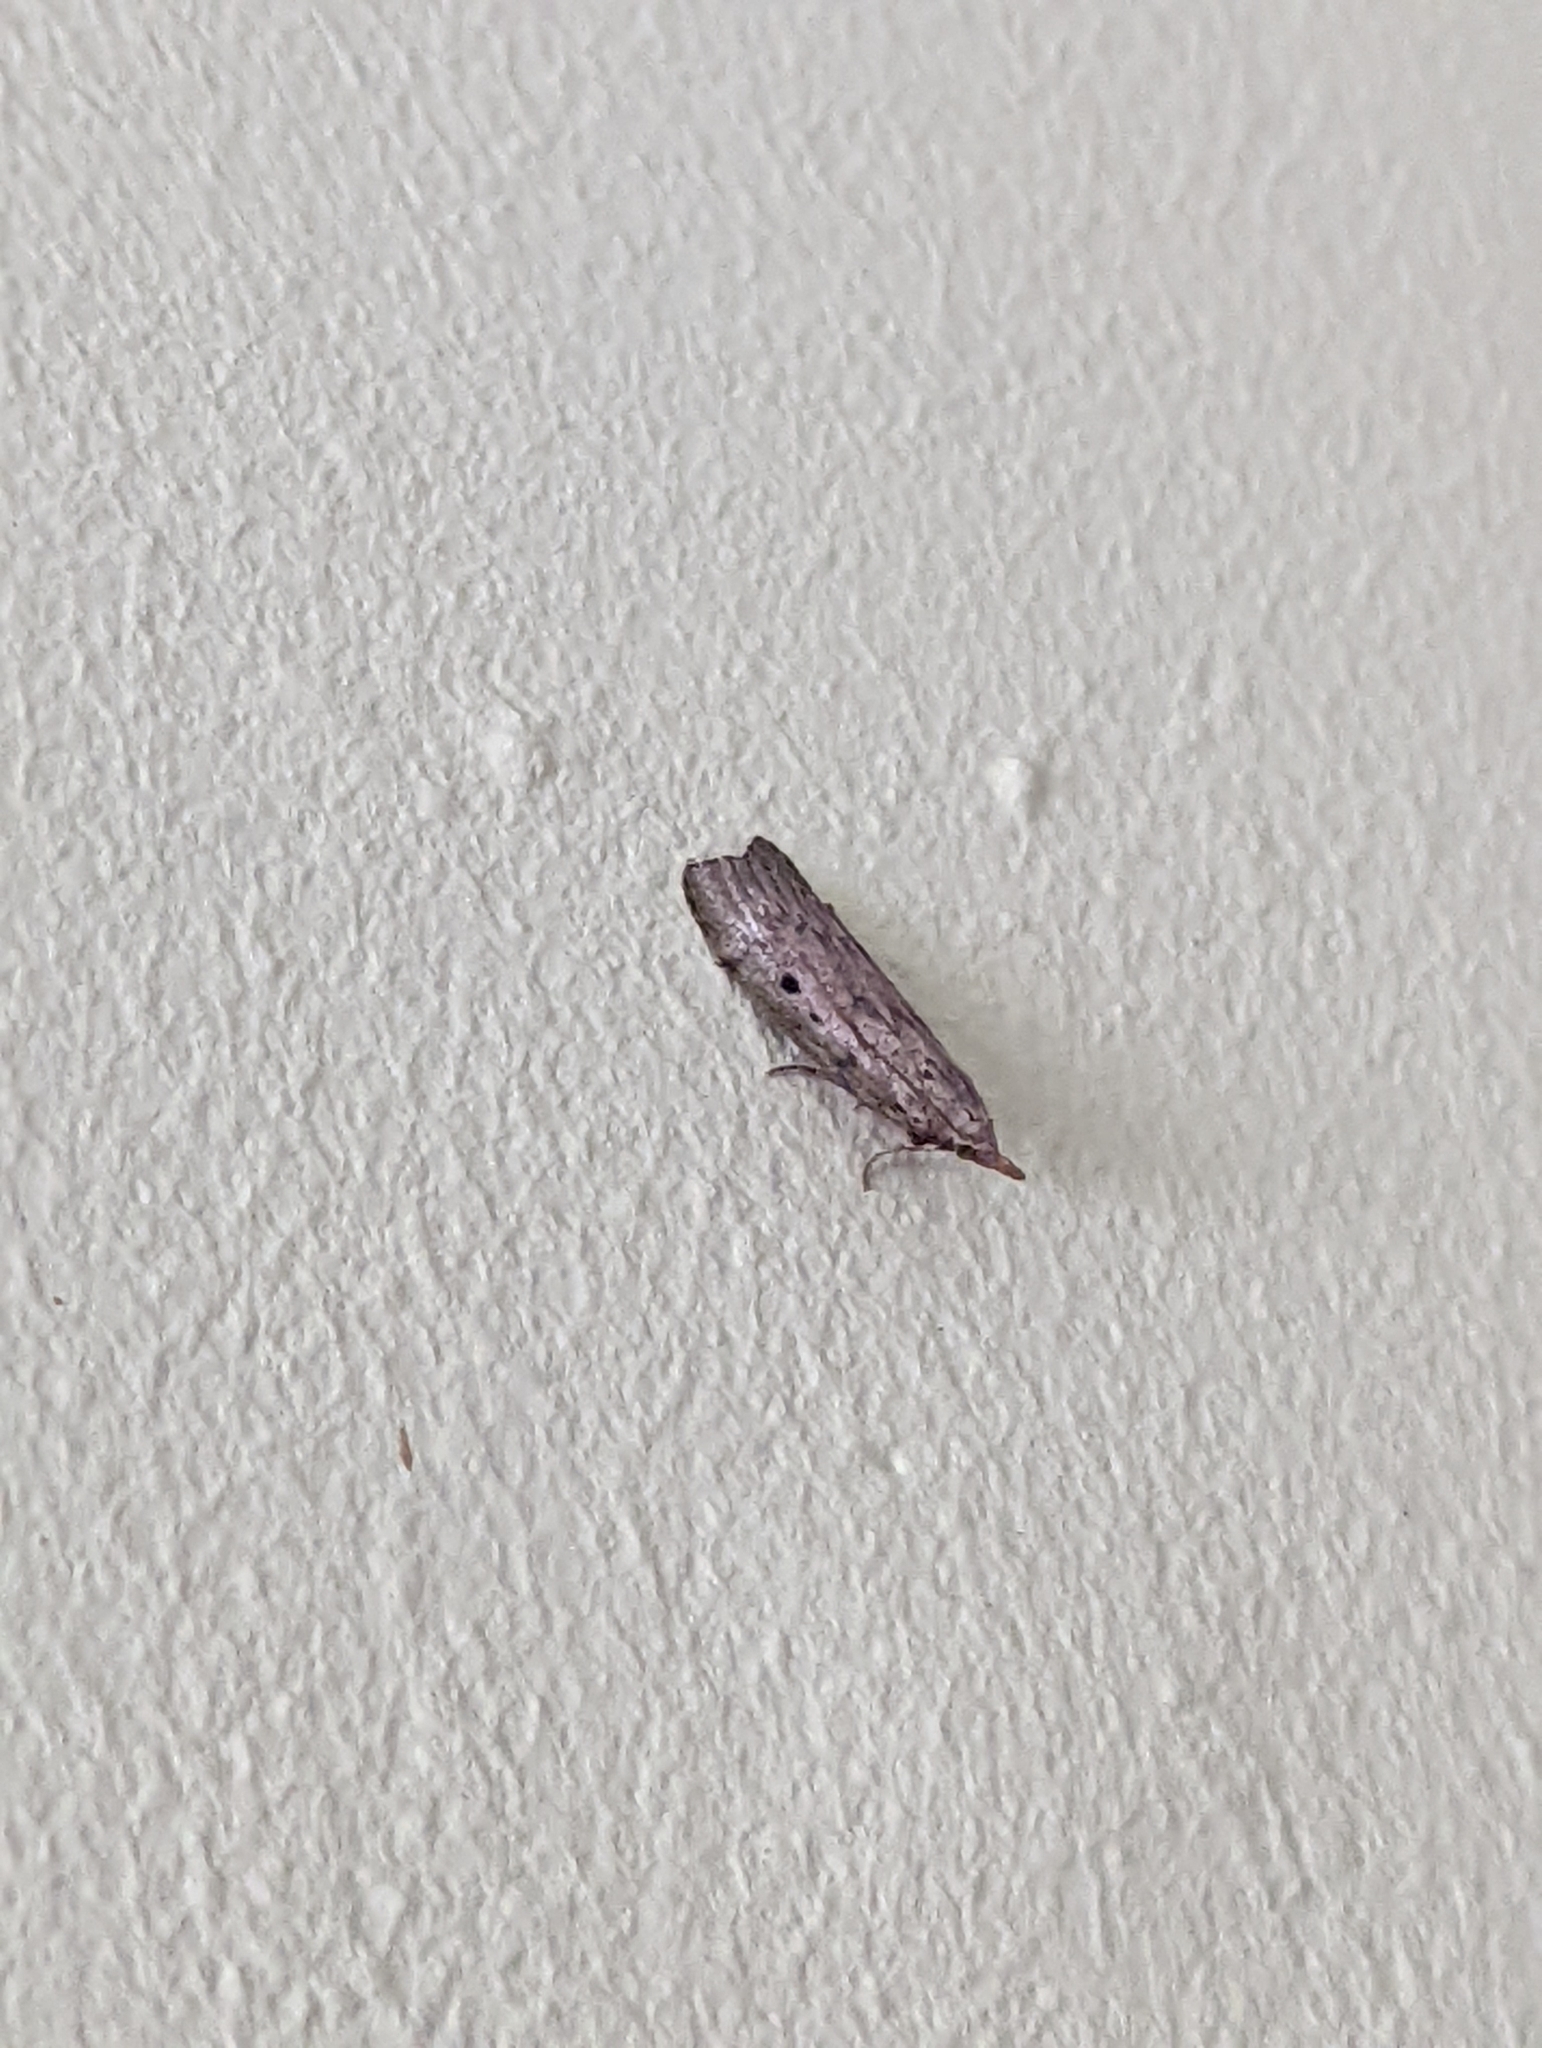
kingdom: Animalia
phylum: Arthropoda
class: Insecta
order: Lepidoptera
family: Pyralidae
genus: Aphomia
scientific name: Aphomia sociella
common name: Bee moth
